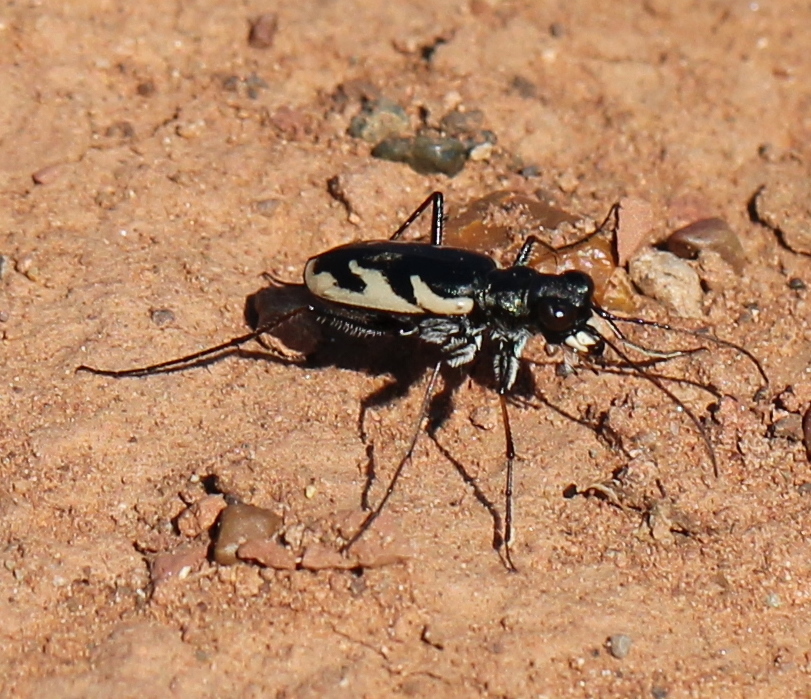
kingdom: Animalia
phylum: Arthropoda
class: Insecta
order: Coleoptera
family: Carabidae
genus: Cephalota
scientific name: Cephalota atrata
